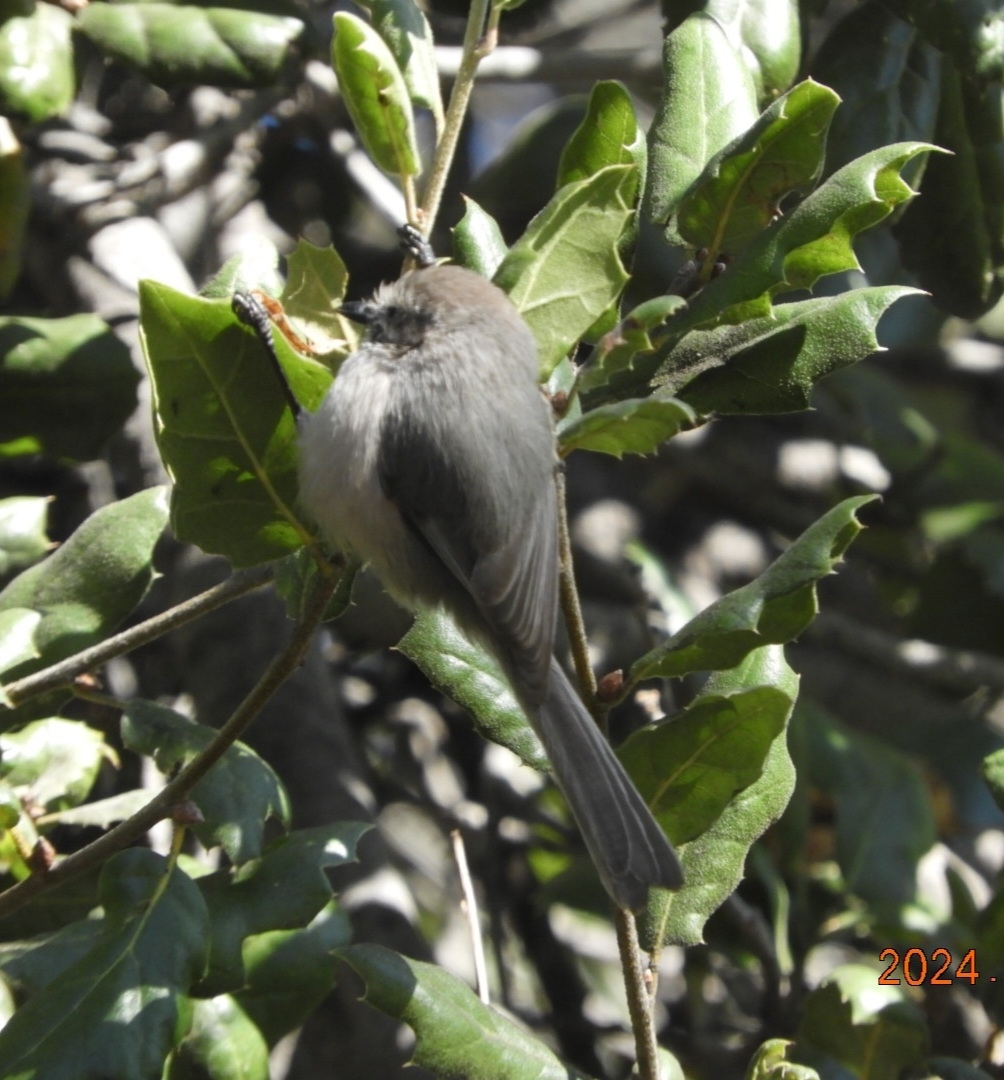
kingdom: Animalia
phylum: Chordata
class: Aves
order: Passeriformes
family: Aegithalidae
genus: Psaltriparus
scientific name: Psaltriparus minimus
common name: American bushtit
